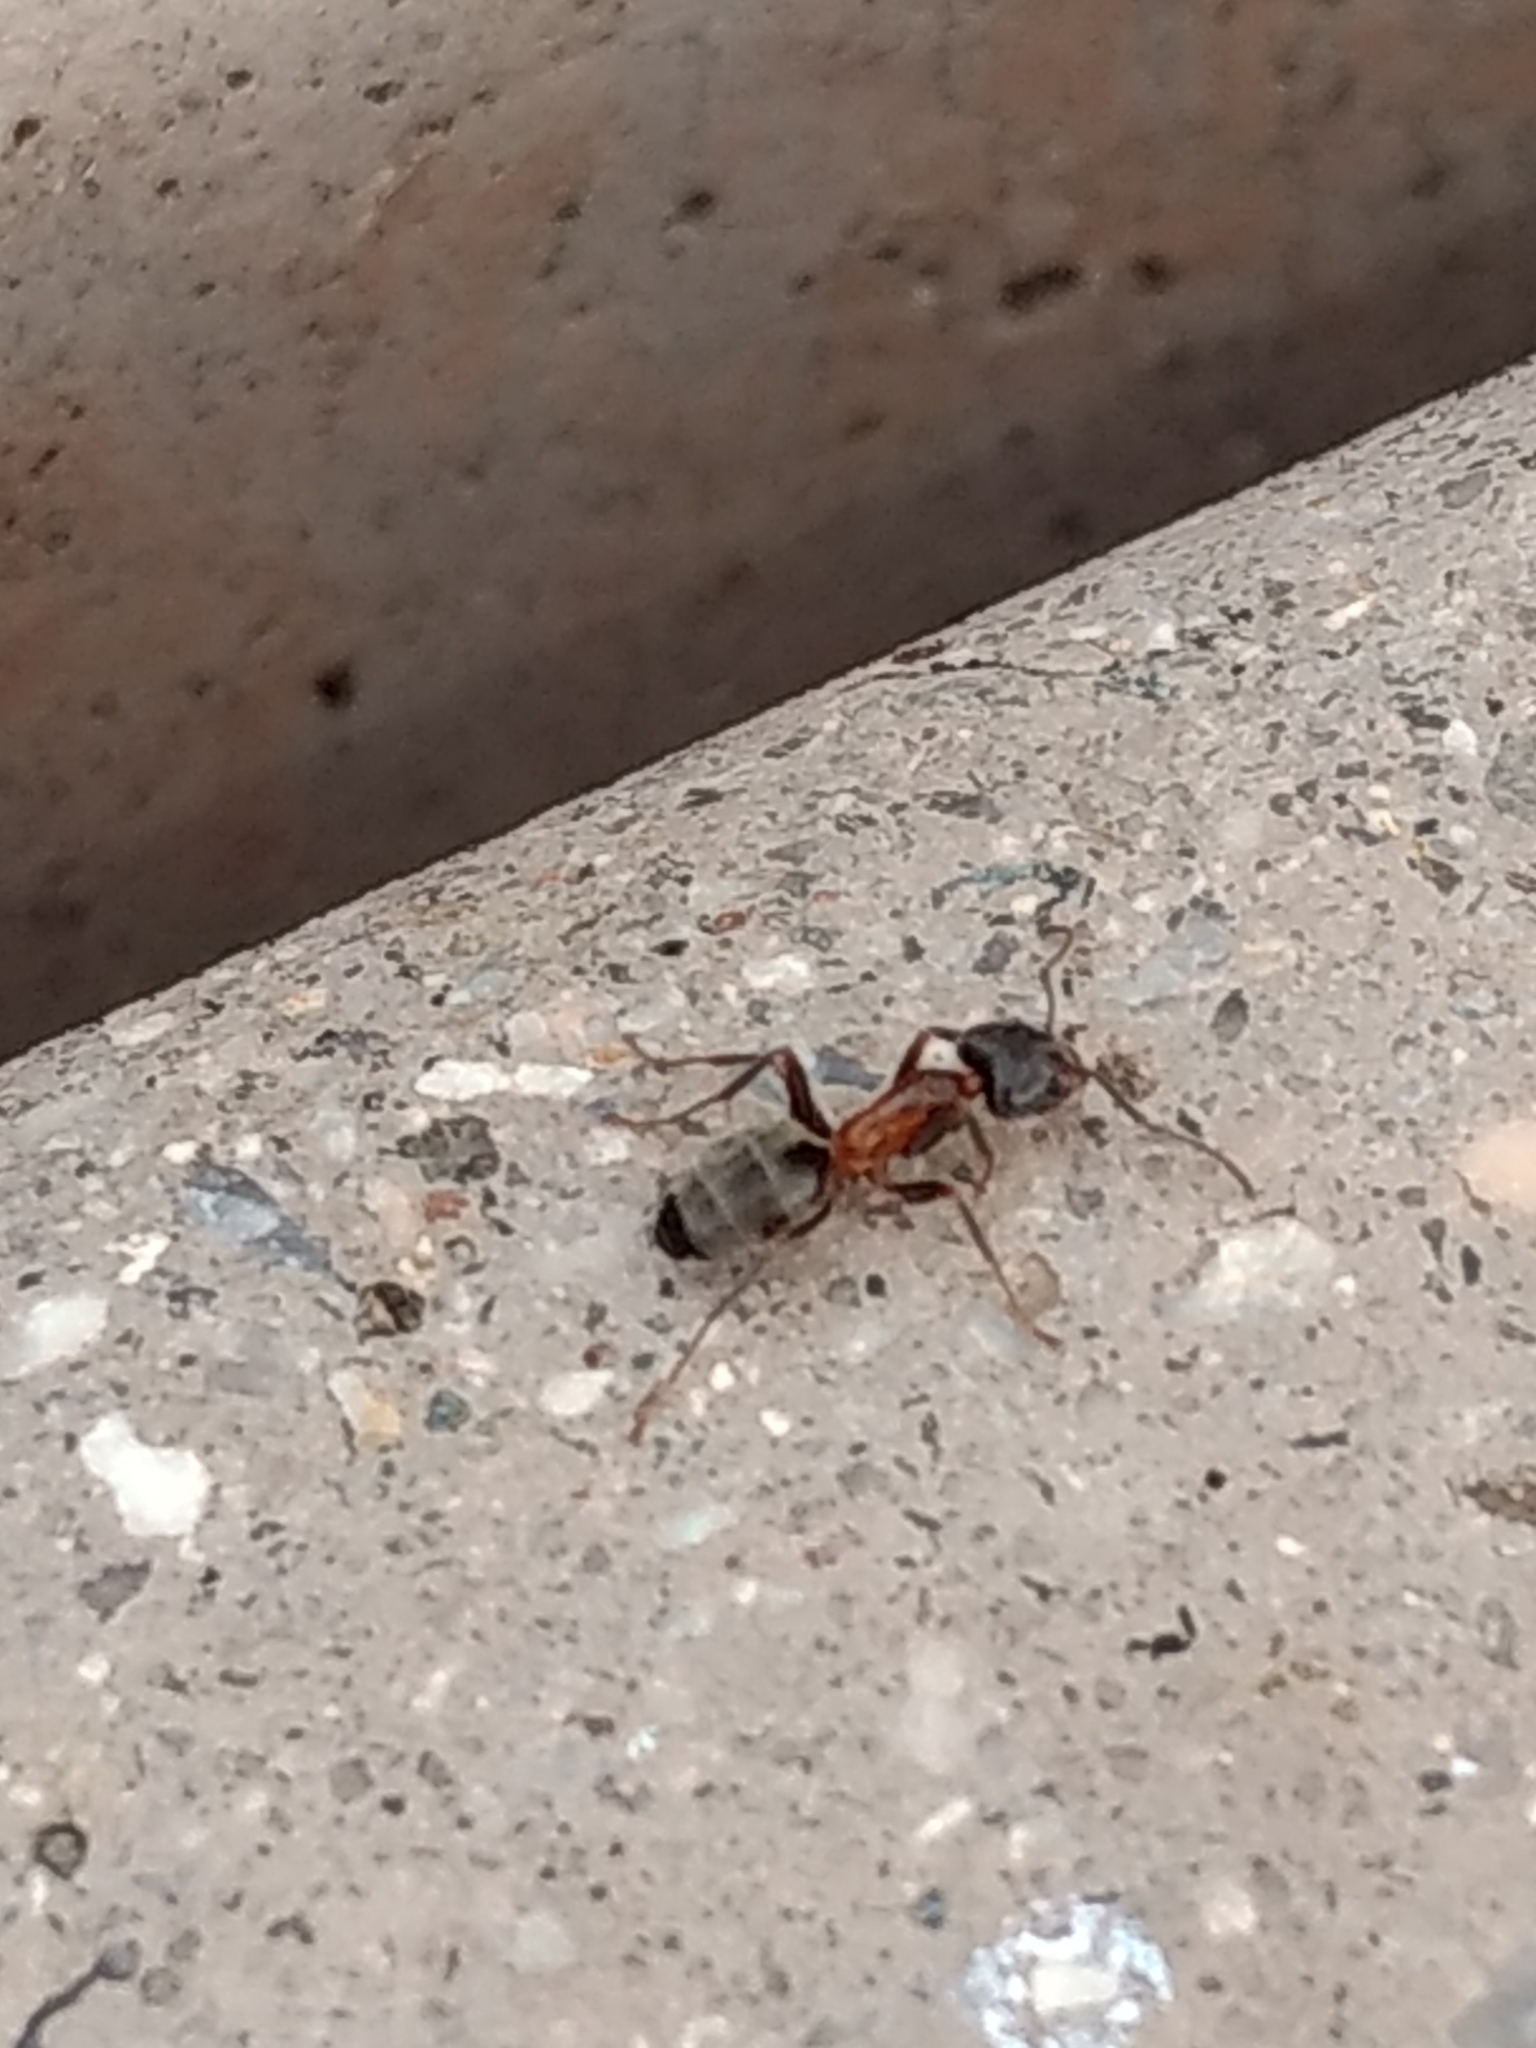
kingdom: Animalia
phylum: Arthropoda
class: Insecta
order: Hymenoptera
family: Formicidae
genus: Liometopum
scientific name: Liometopum occidentale
